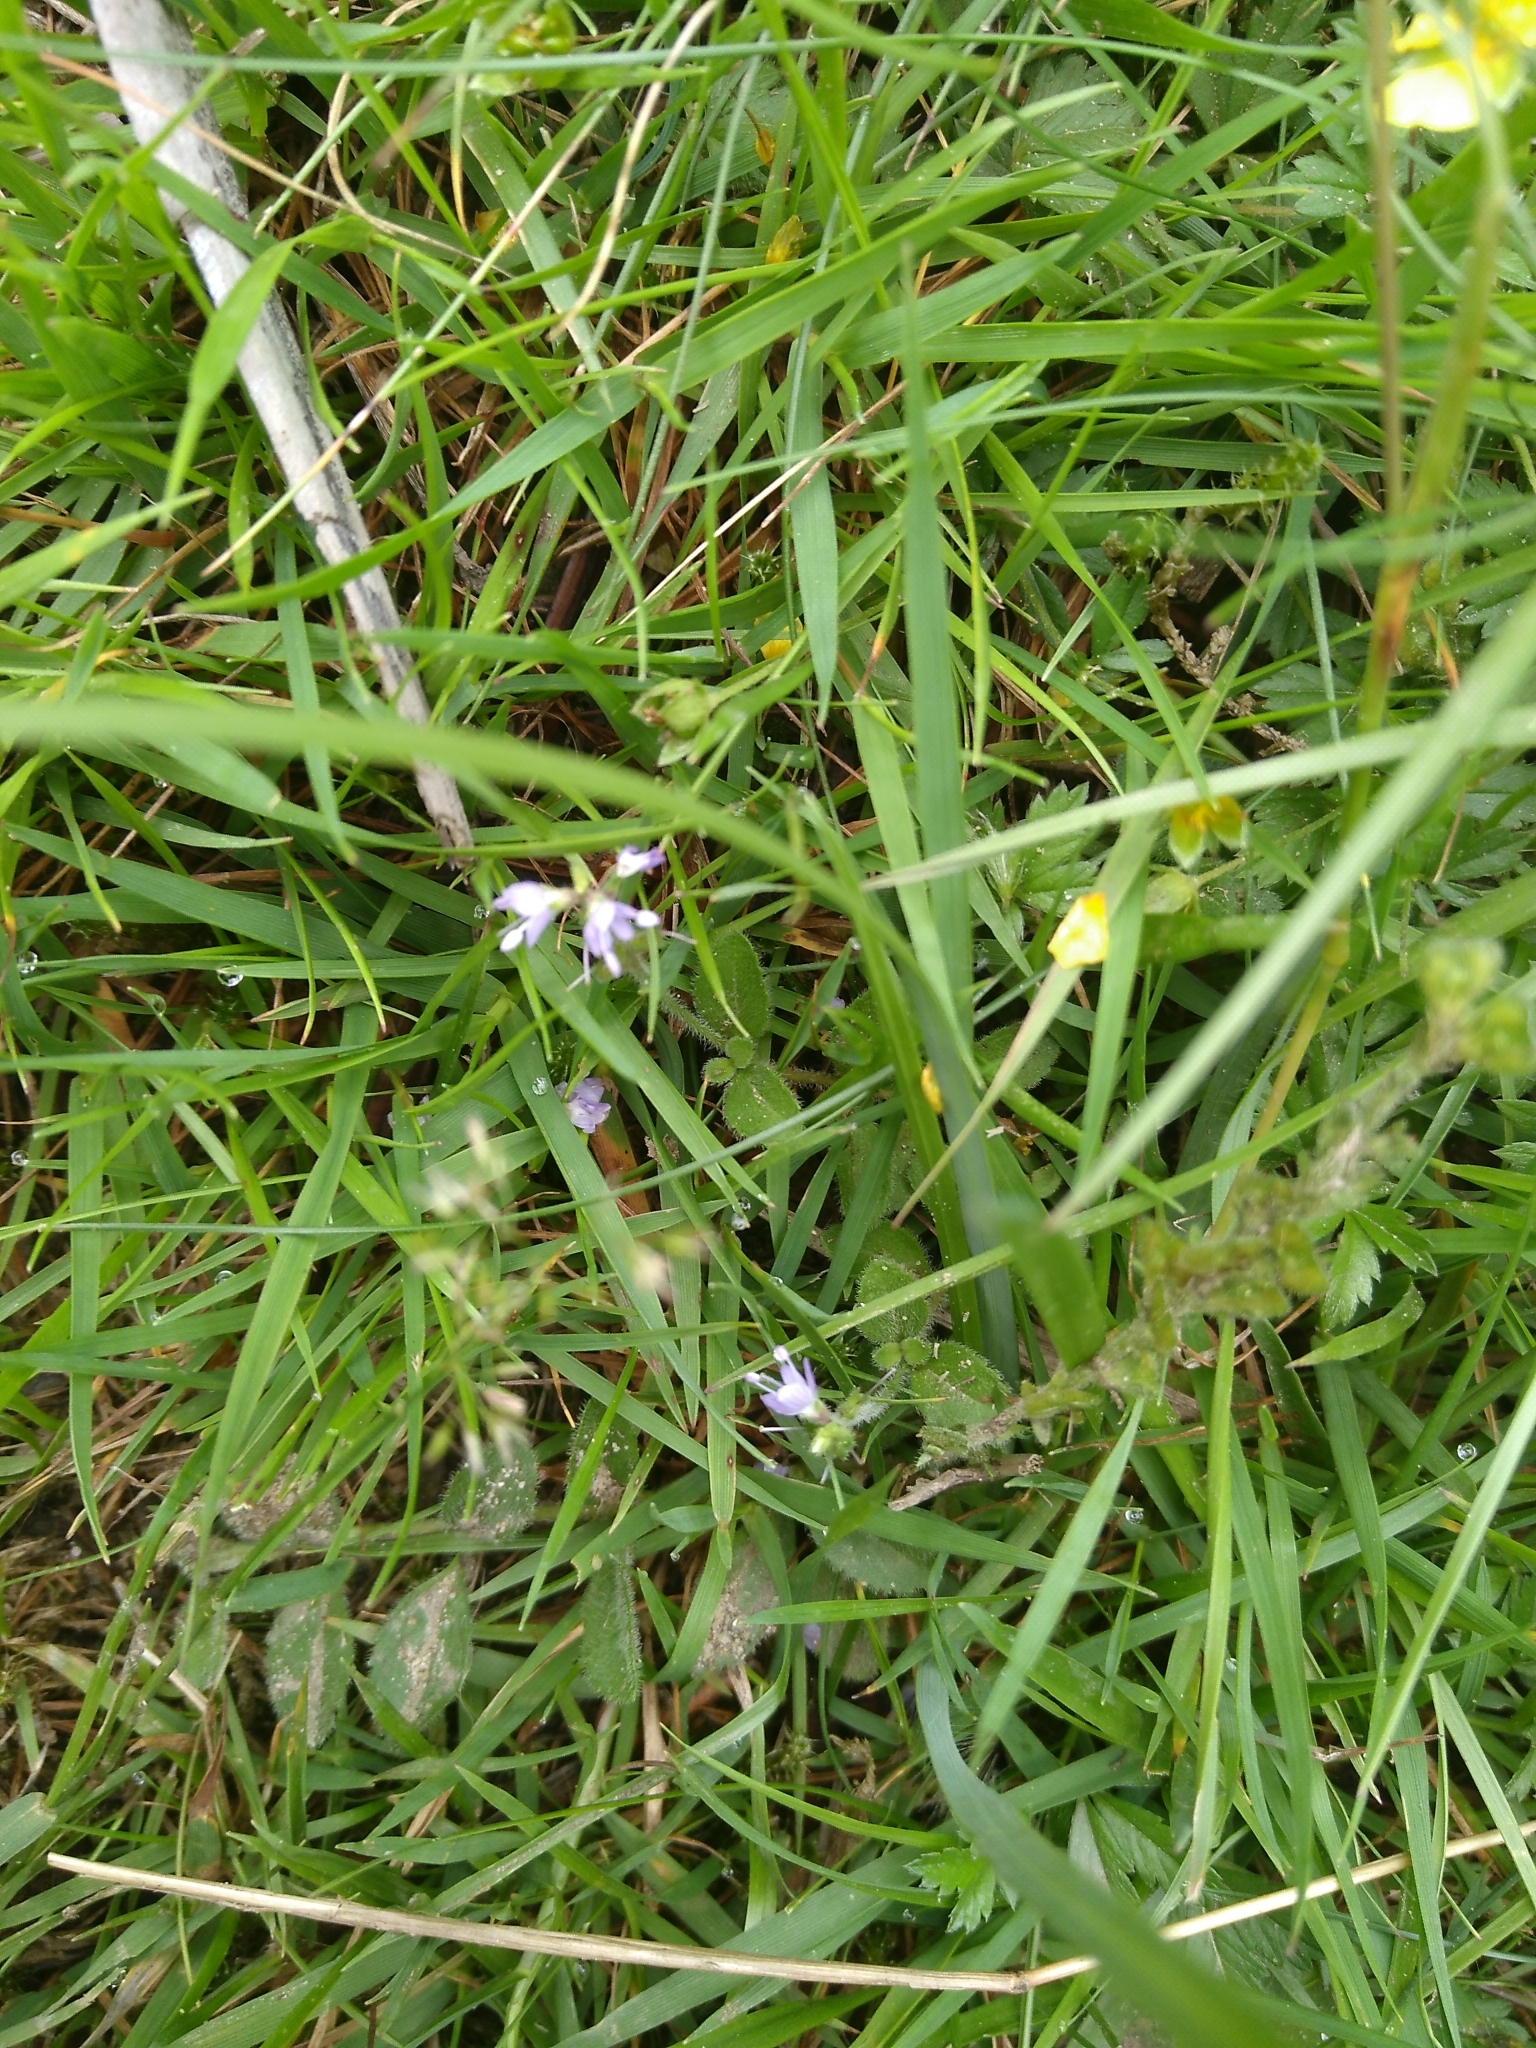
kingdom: Plantae
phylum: Tracheophyta
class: Magnoliopsida
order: Lamiales
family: Plantaginaceae
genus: Veronica
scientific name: Veronica officinalis
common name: Common speedwell
